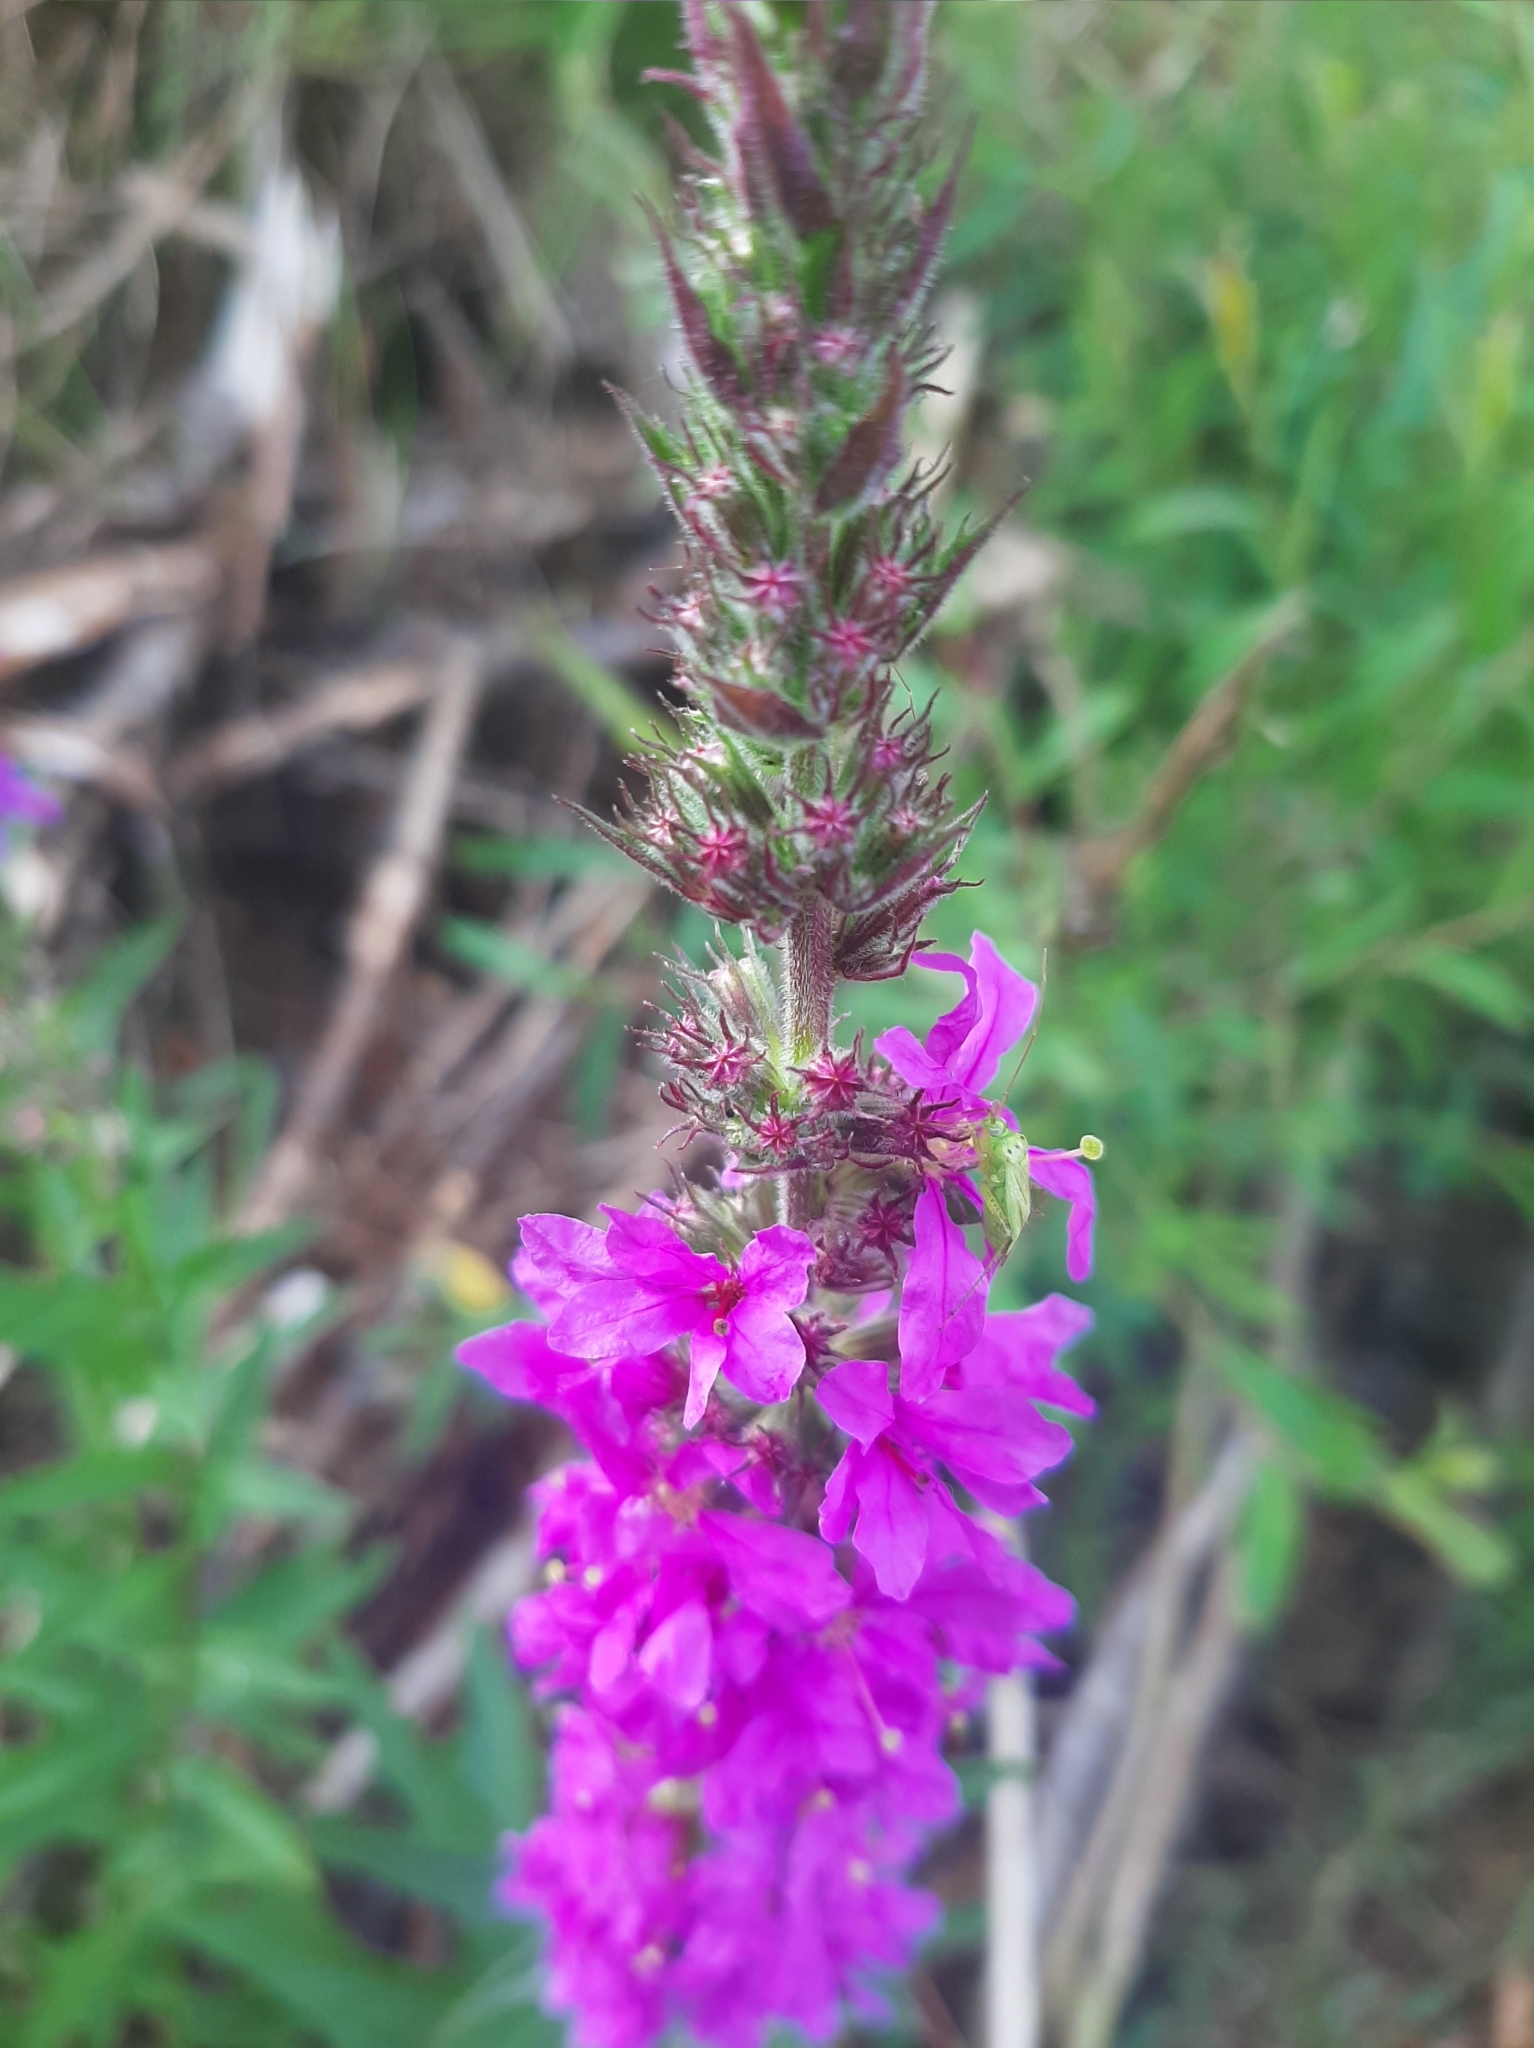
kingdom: Plantae
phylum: Tracheophyta
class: Magnoliopsida
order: Myrtales
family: Lythraceae
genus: Lythrum
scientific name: Lythrum salicaria
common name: Purple loosestrife
